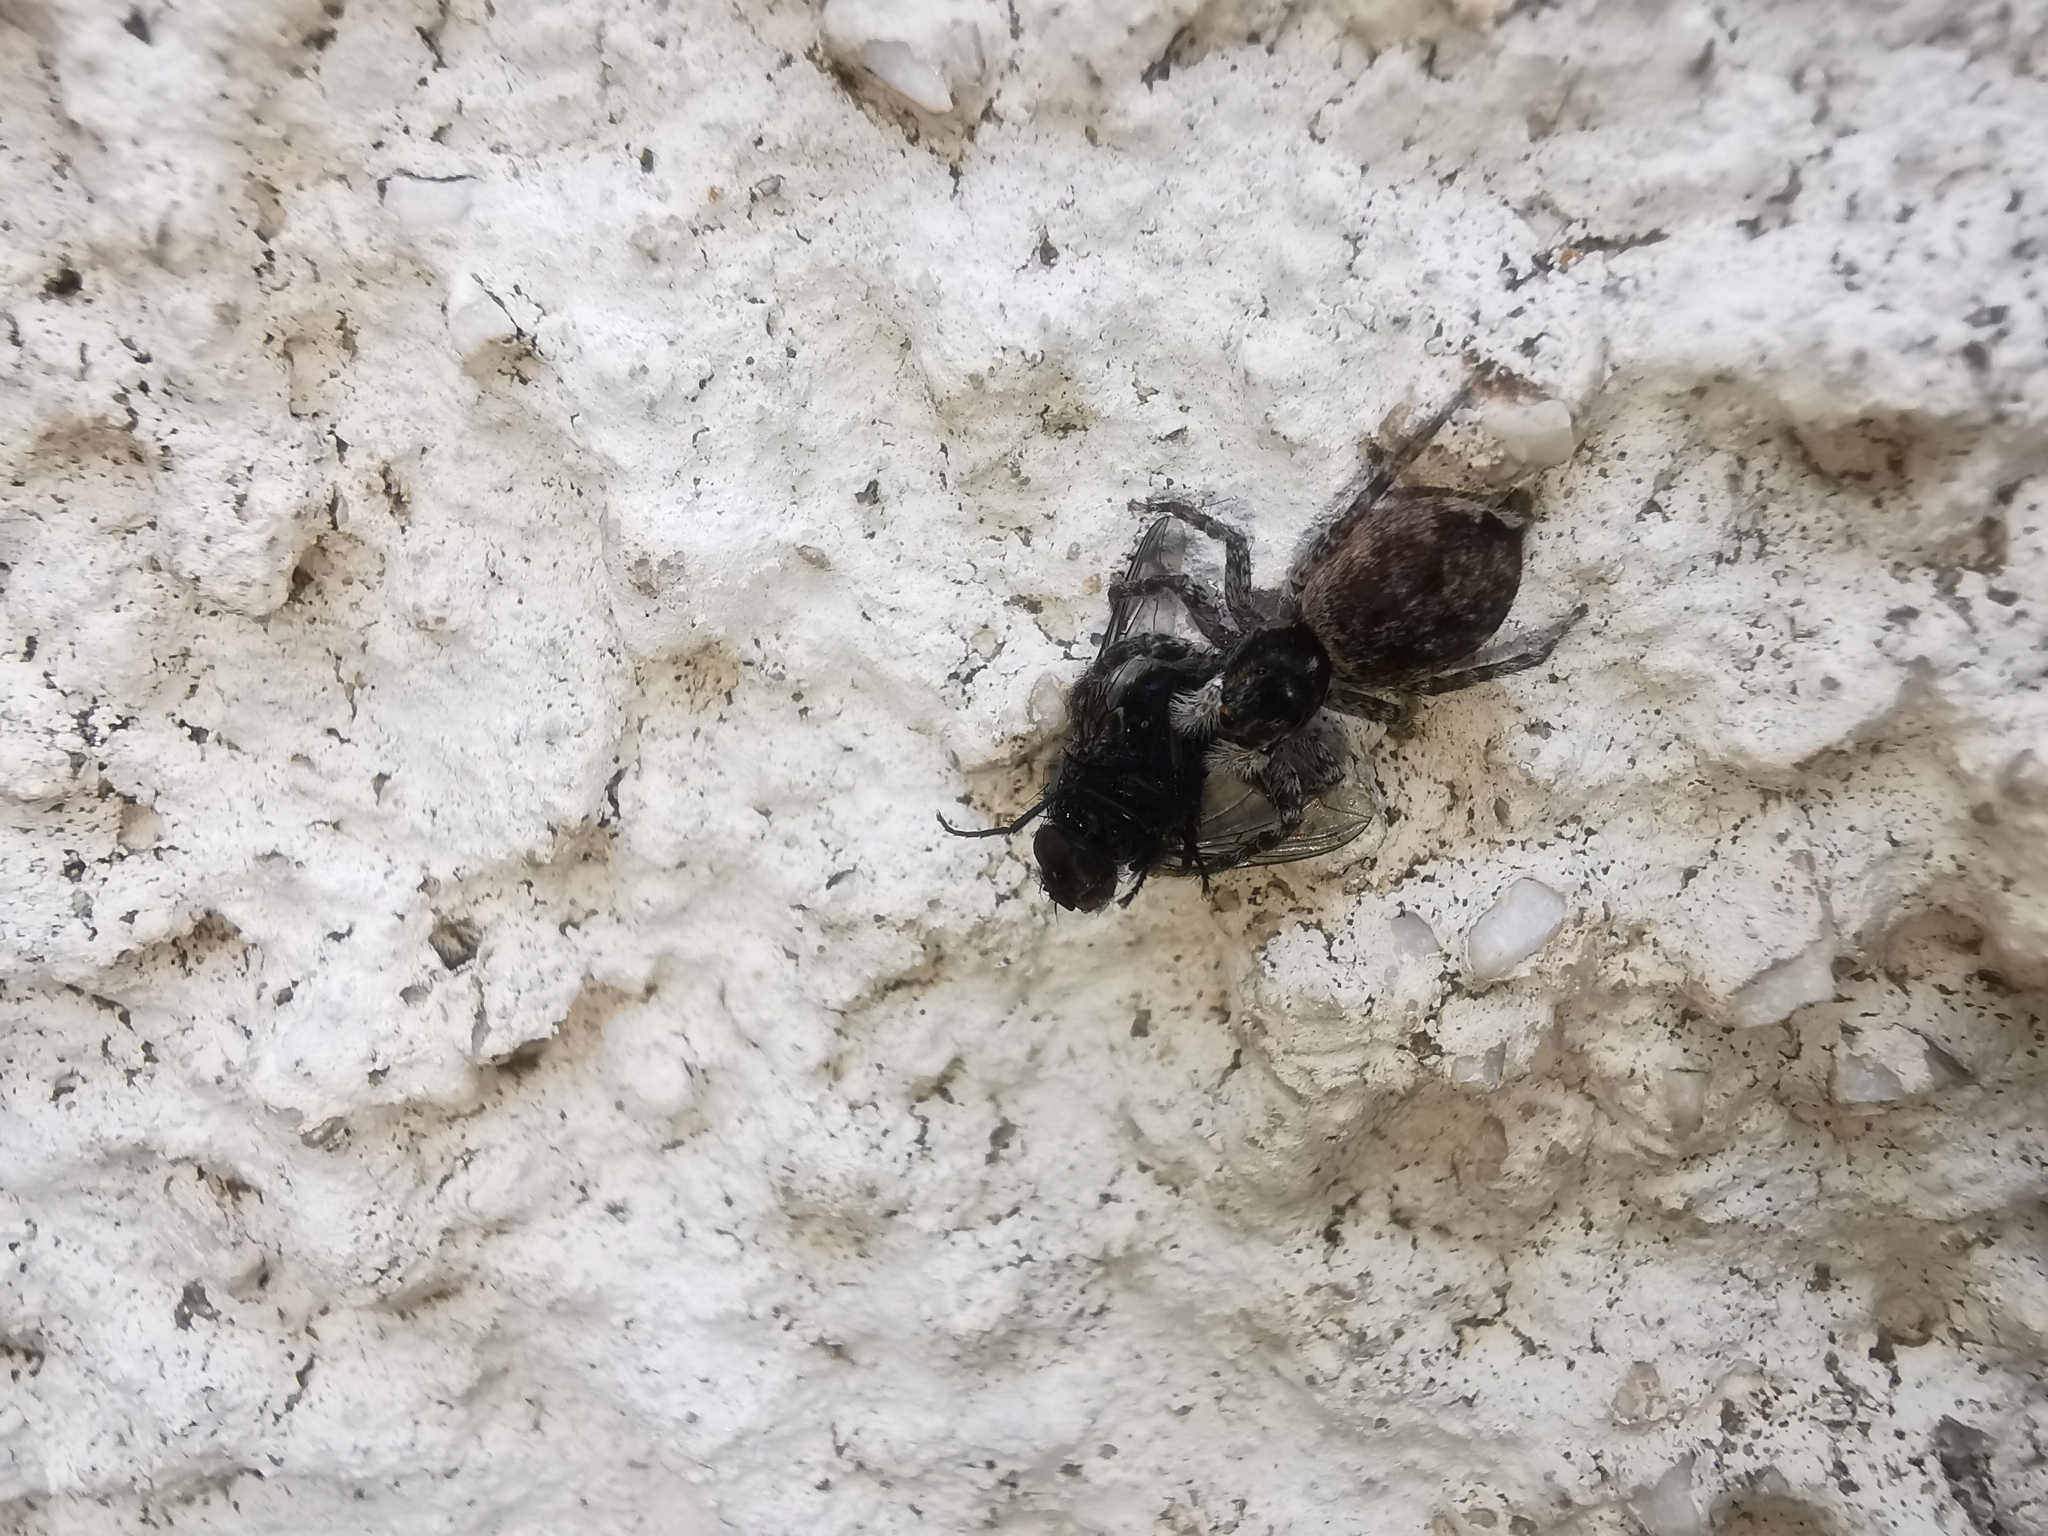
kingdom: Animalia
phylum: Arthropoda
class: Arachnida
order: Araneae
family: Salticidae
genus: Menemerus
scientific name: Menemerus semilimbatus
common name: Jumping spider
